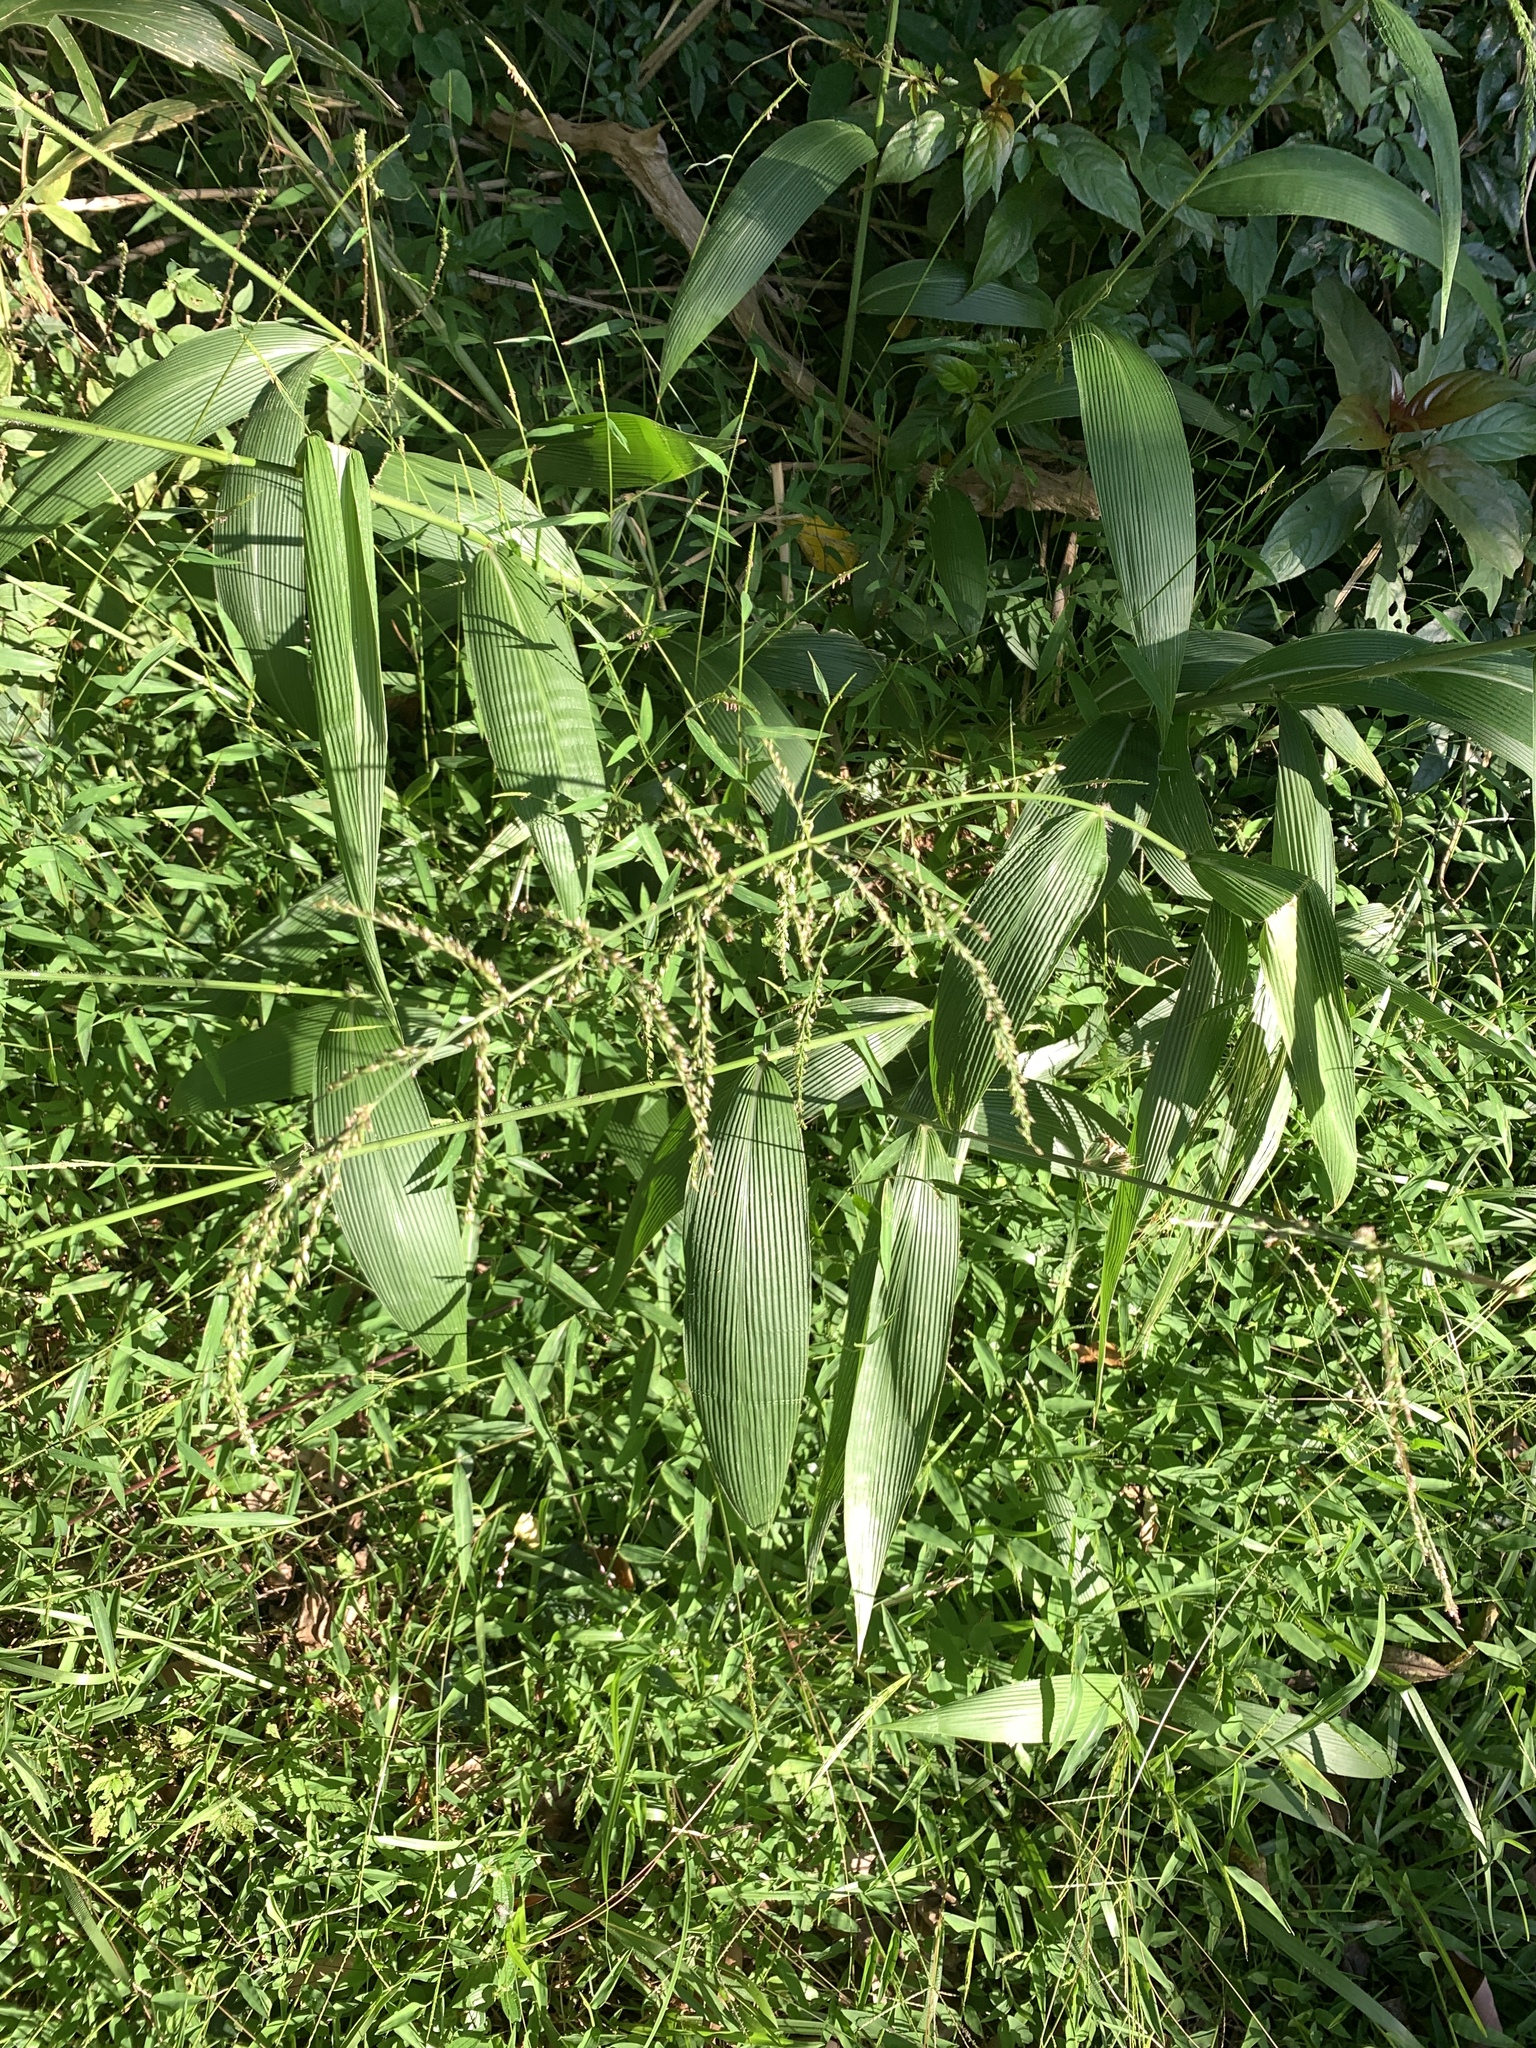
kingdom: Plantae
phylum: Tracheophyta
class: Liliopsida
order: Poales
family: Poaceae
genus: Setaria
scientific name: Setaria palmifolia
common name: Broadleaved bristlegrass
